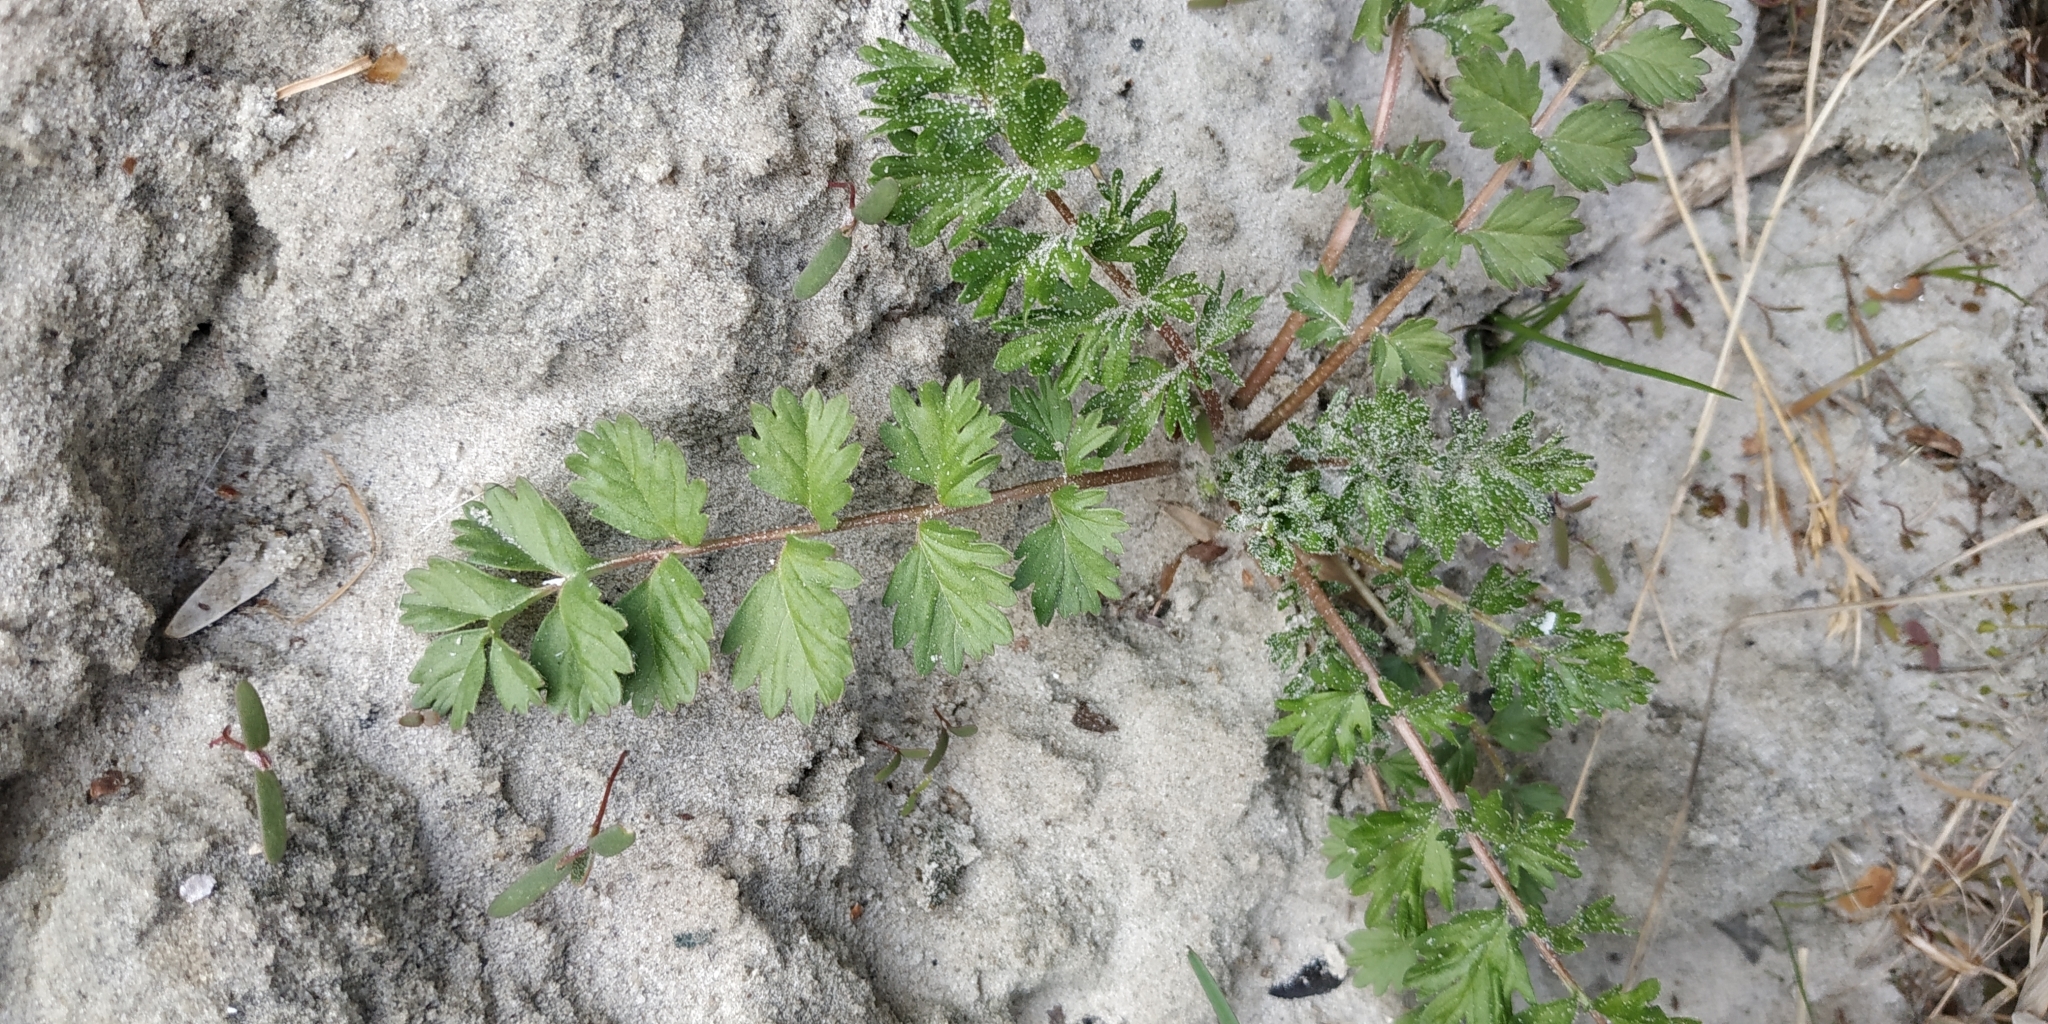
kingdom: Plantae
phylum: Tracheophyta
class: Magnoliopsida
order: Rosales
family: Rosaceae
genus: Potentilla
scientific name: Potentilla supina
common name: Prostrate cinquefoil
